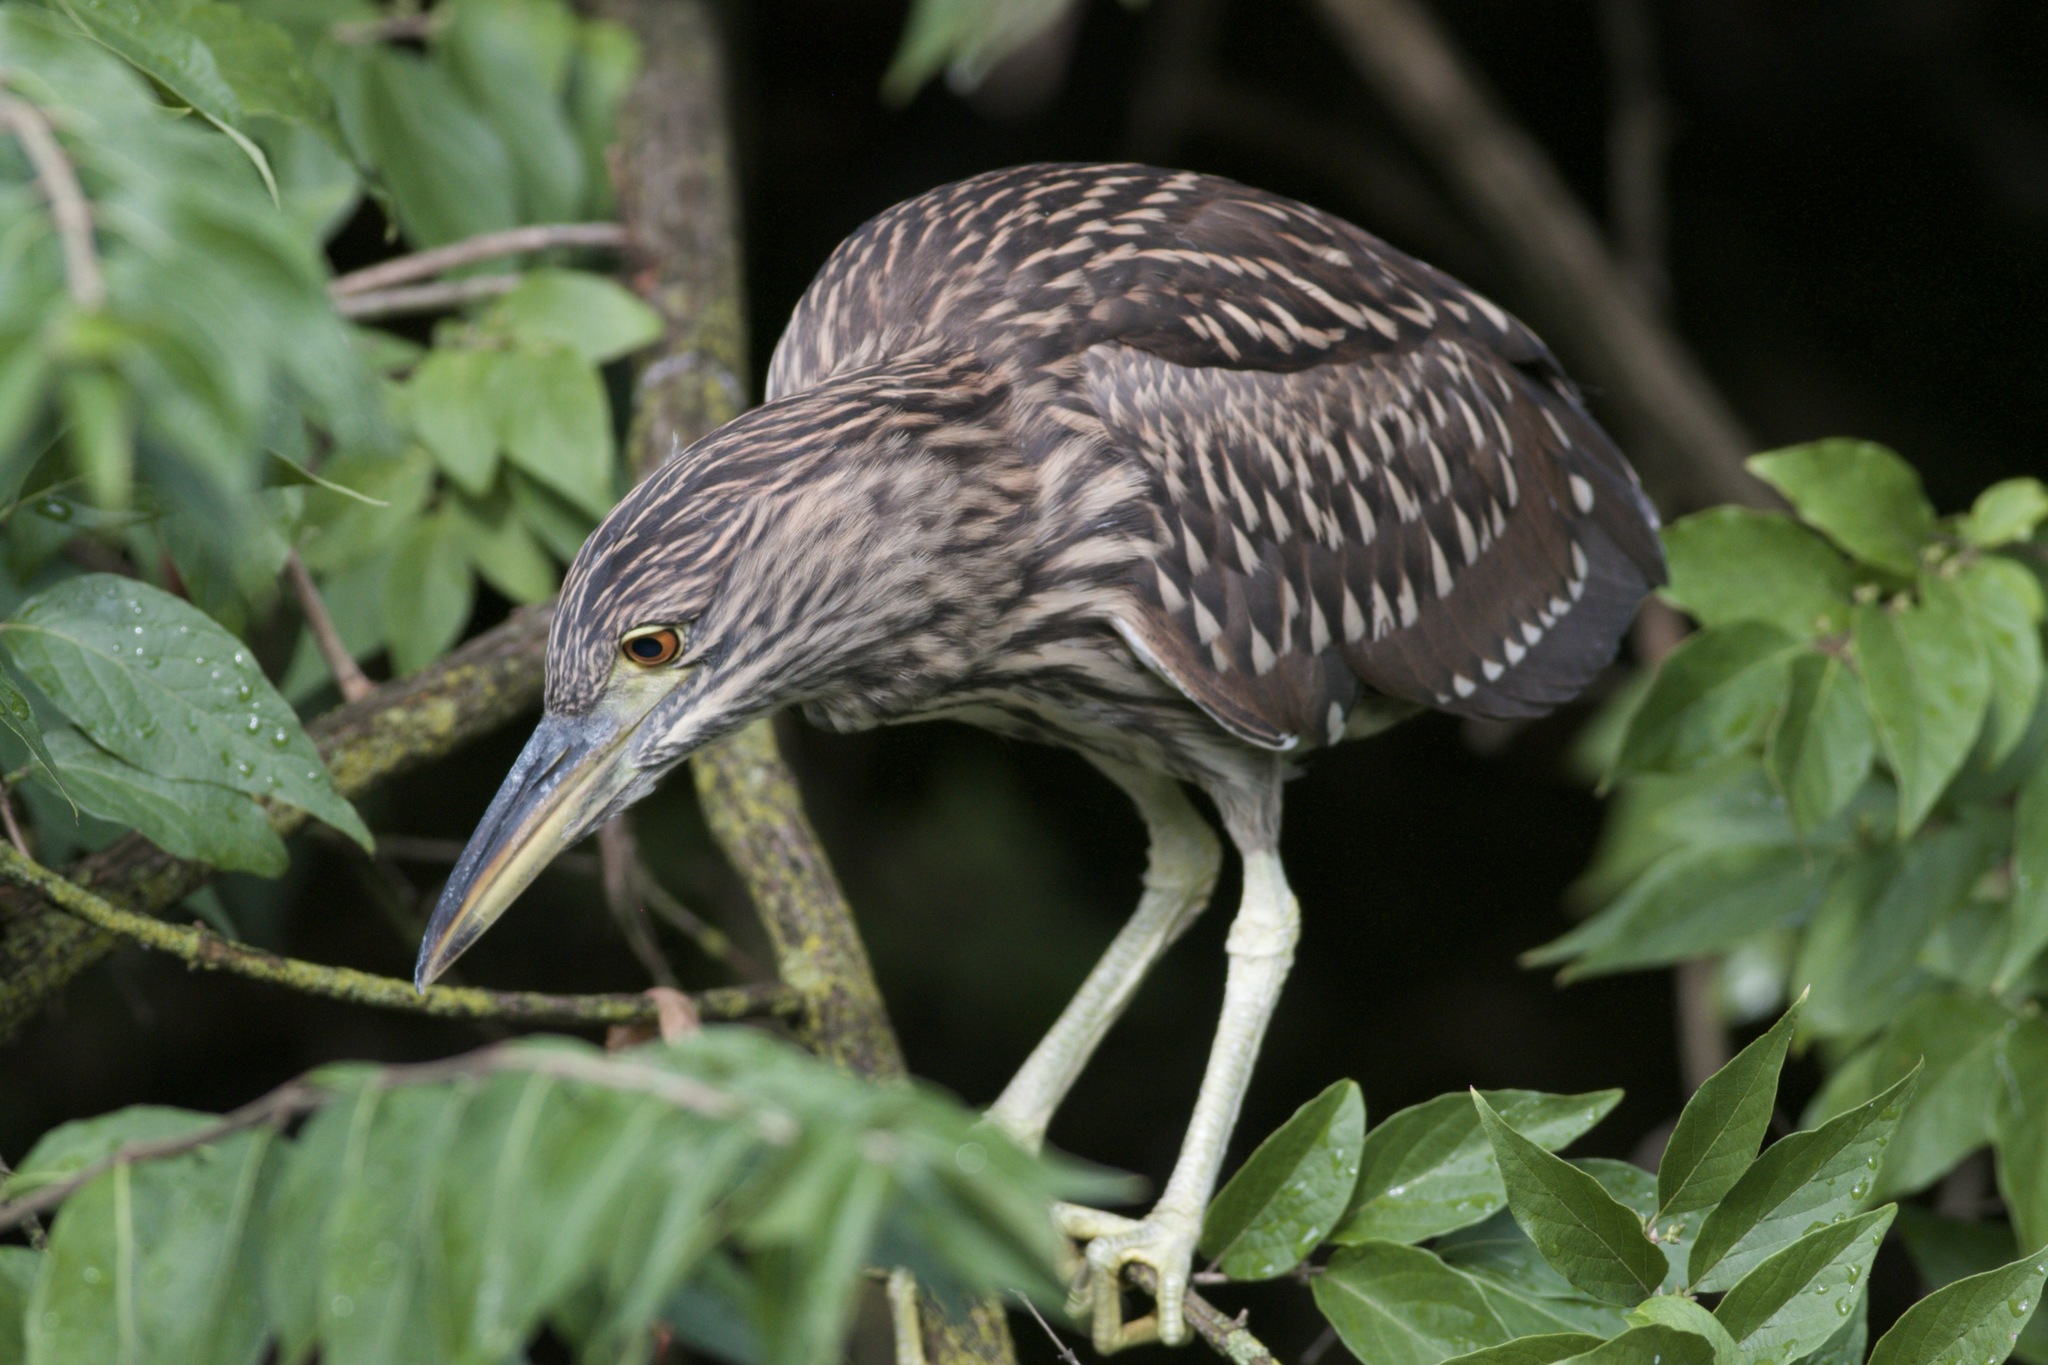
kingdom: Animalia
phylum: Chordata
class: Aves
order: Pelecaniformes
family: Ardeidae
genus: Nycticorax
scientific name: Nycticorax nycticorax
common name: Black-crowned night heron
